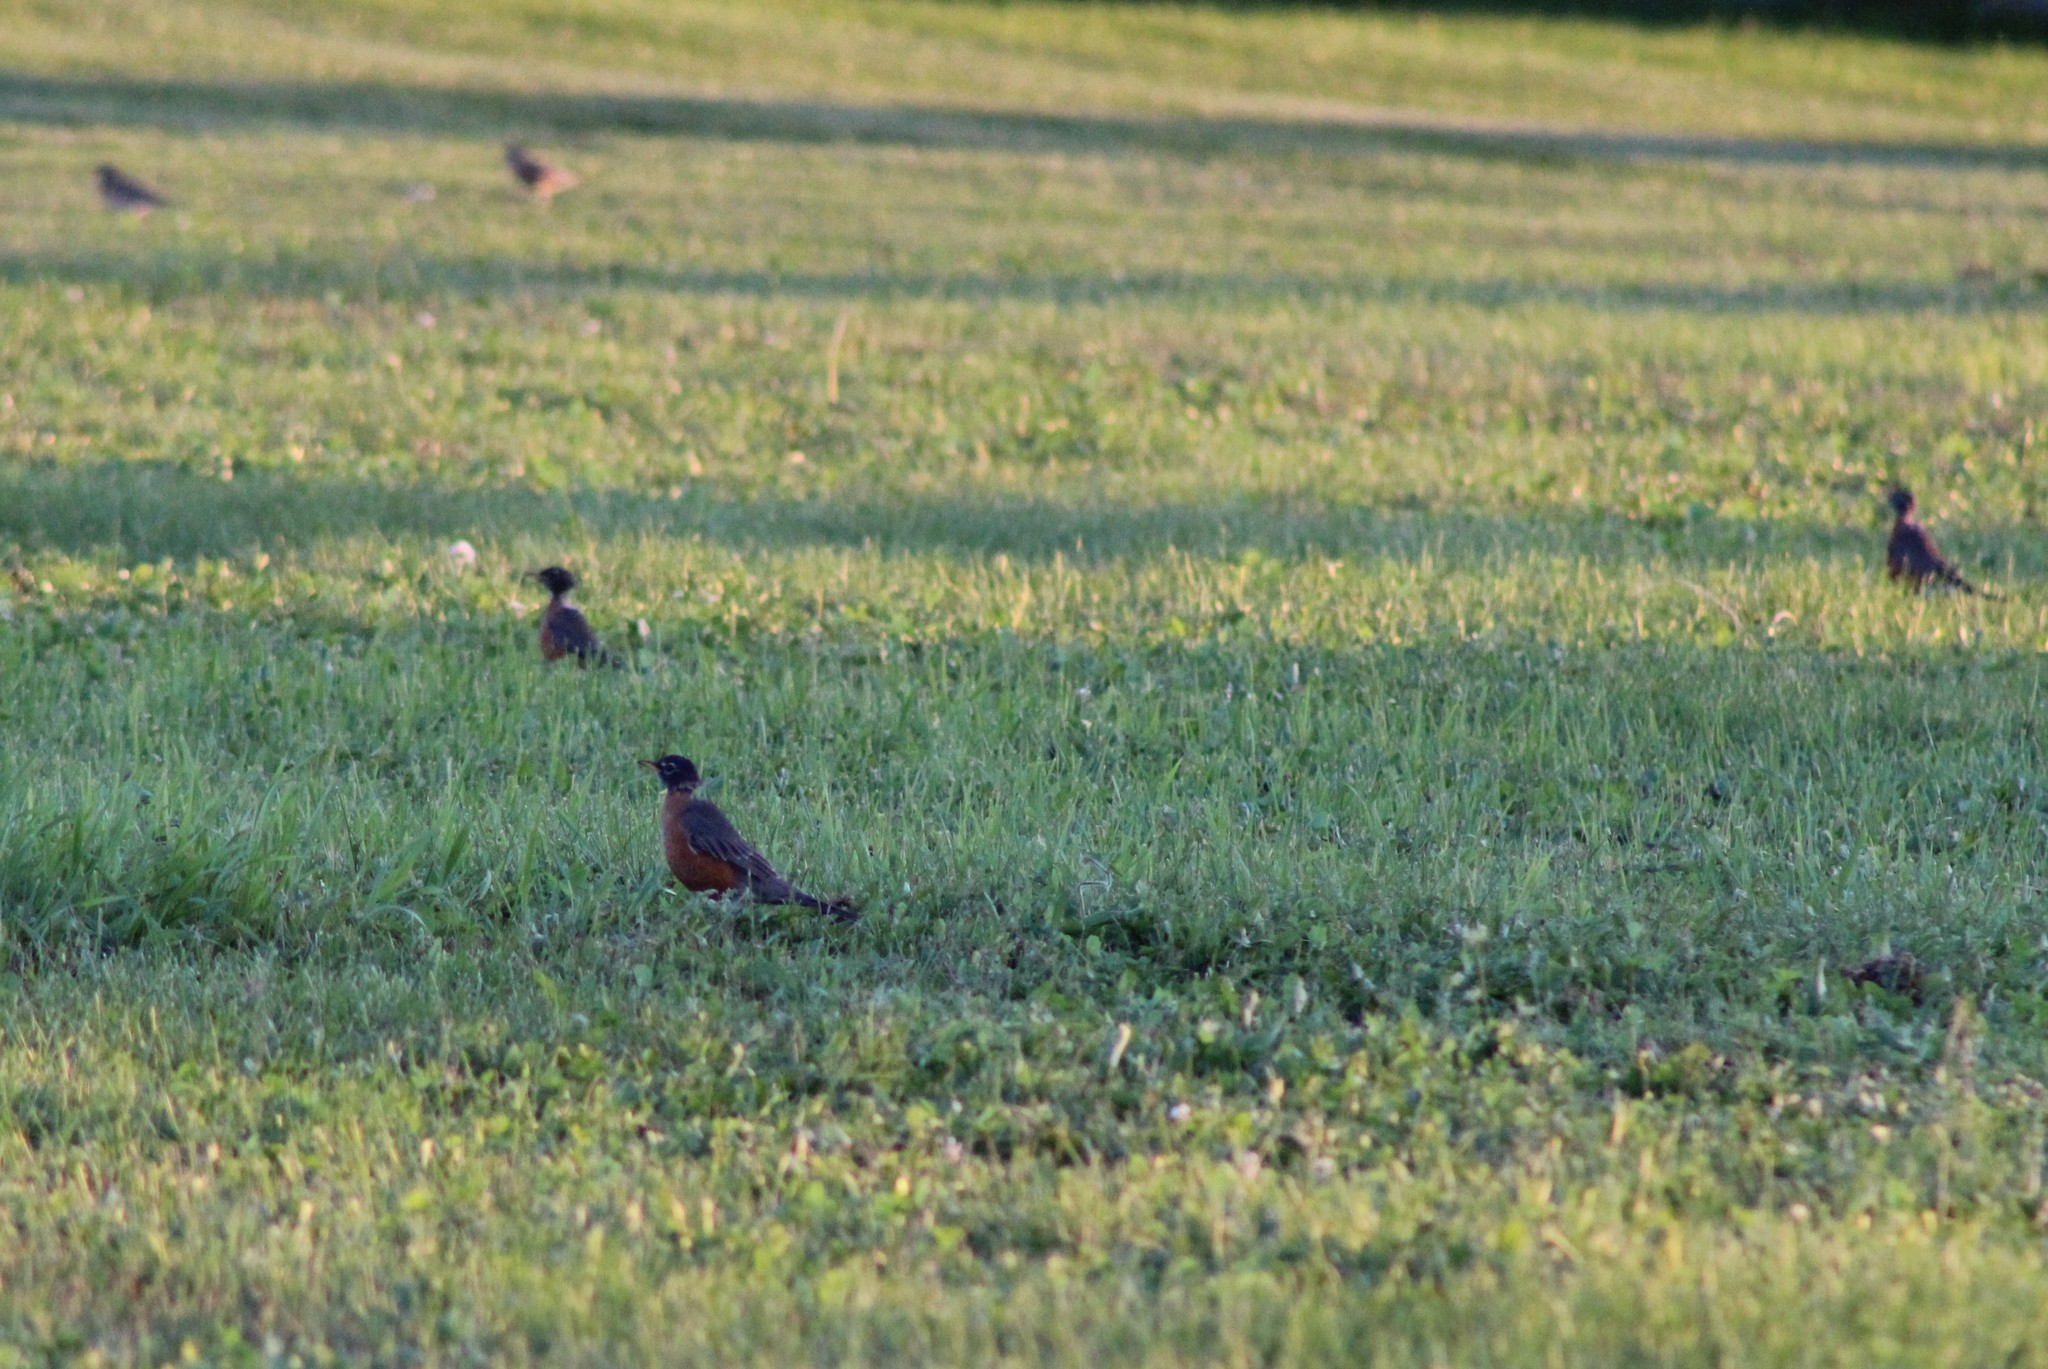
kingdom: Animalia
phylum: Chordata
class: Aves
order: Passeriformes
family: Turdidae
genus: Turdus
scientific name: Turdus migratorius
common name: American robin
